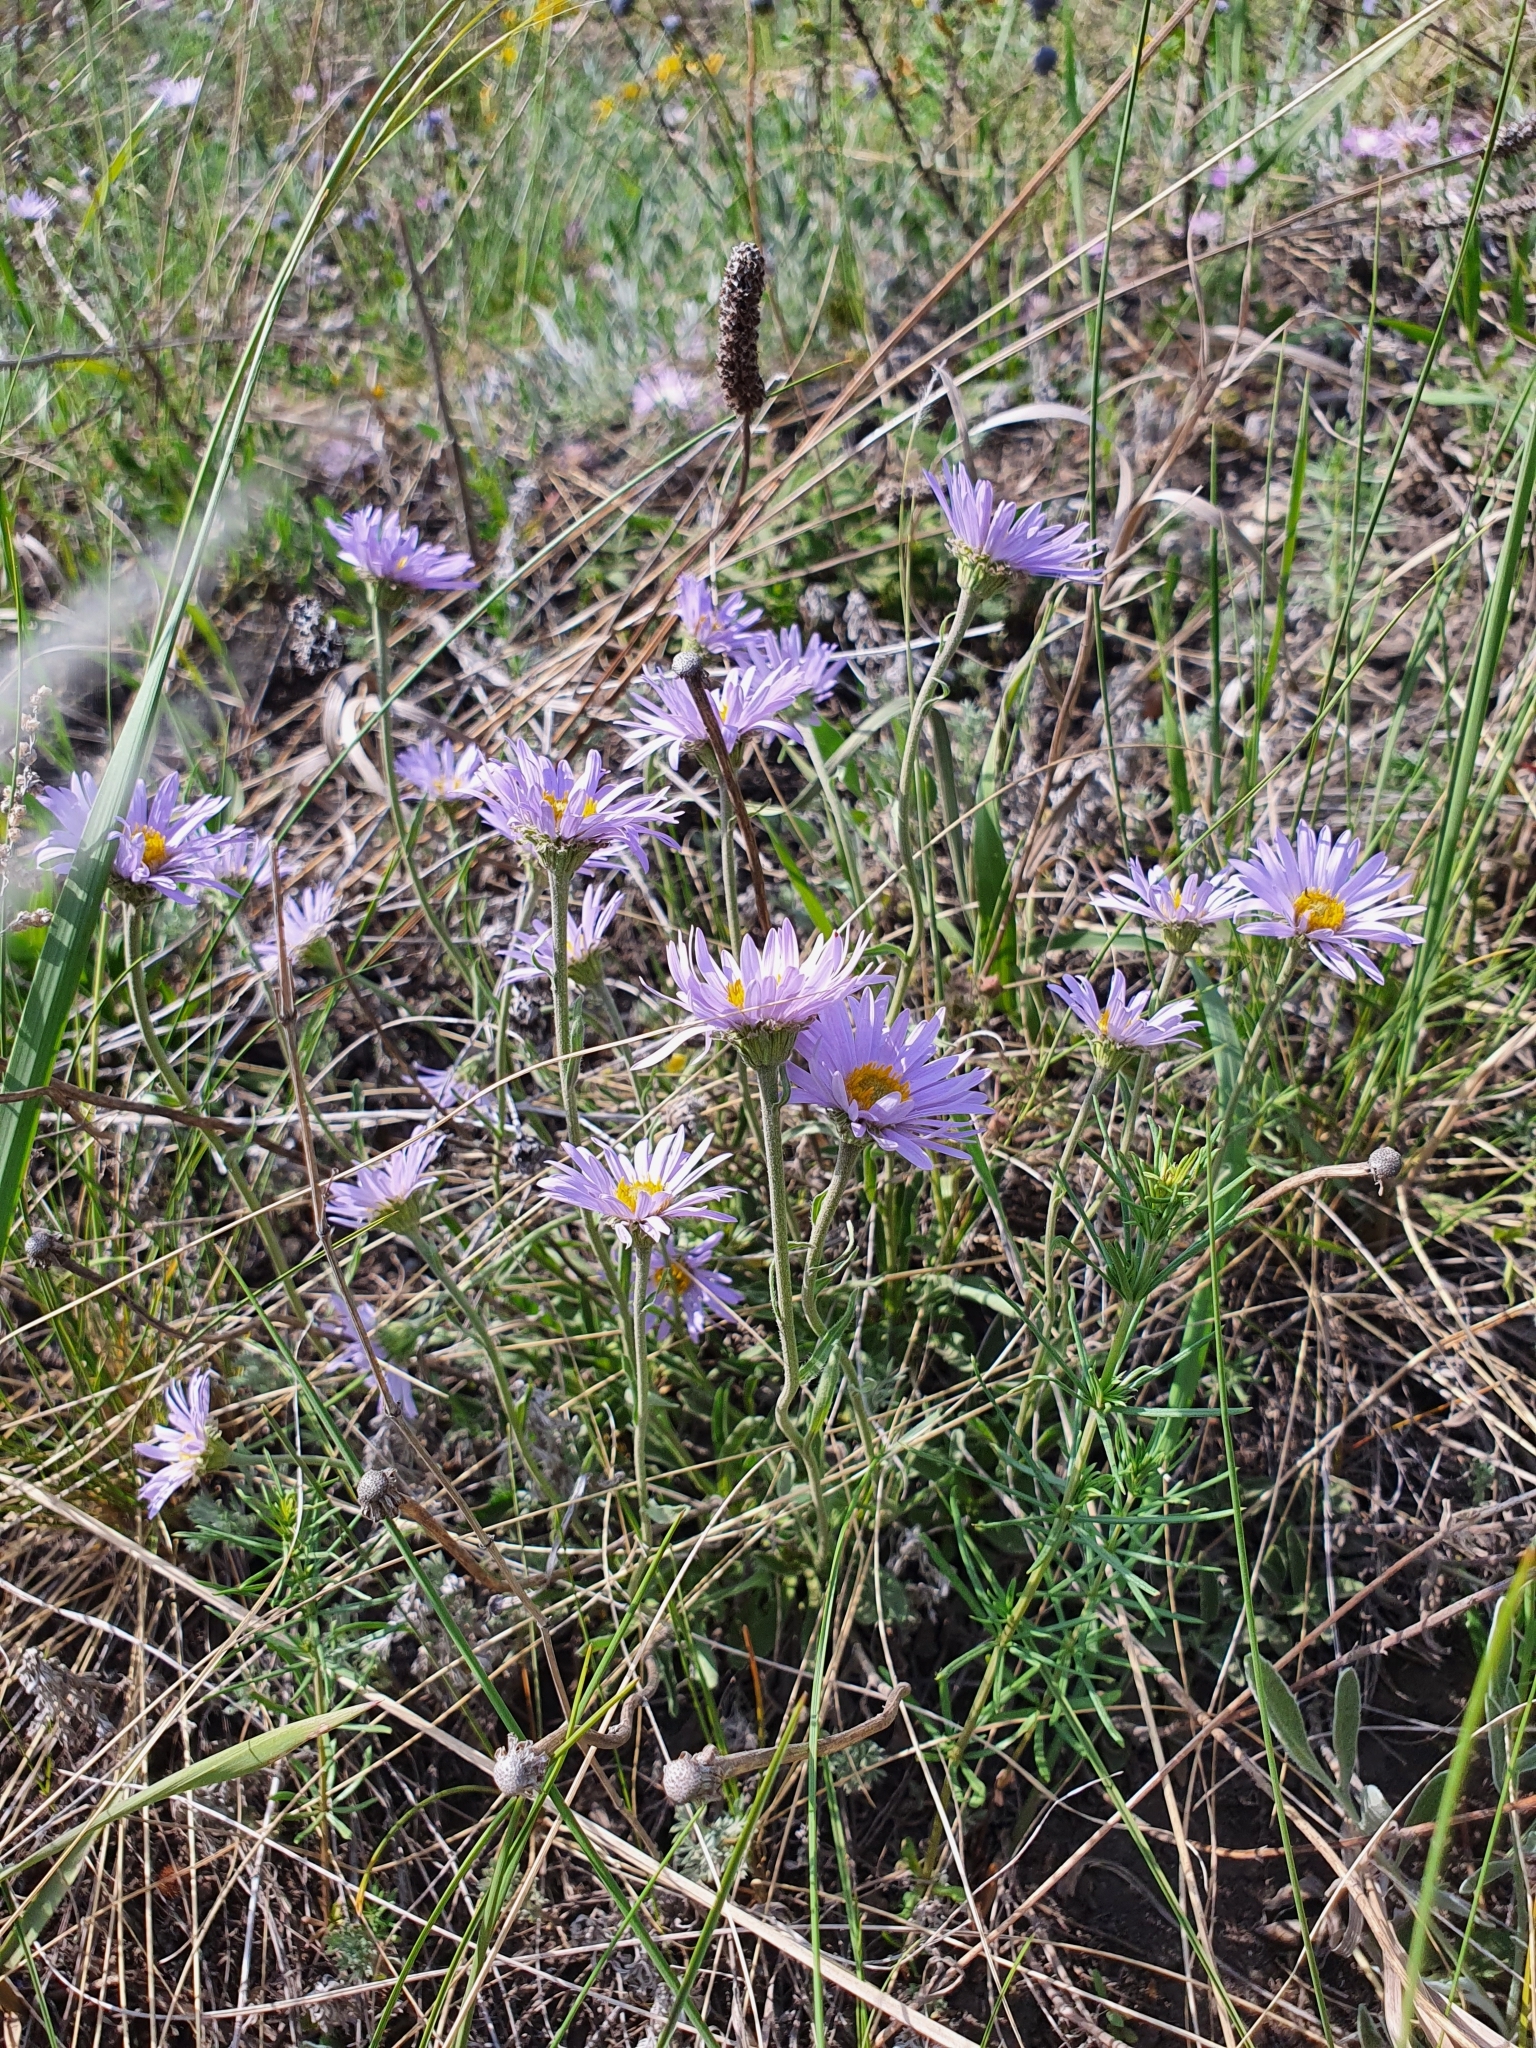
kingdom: Plantae
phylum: Tracheophyta
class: Magnoliopsida
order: Asterales
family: Asteraceae
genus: Aster
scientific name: Aster alpinus
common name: Alpine aster
